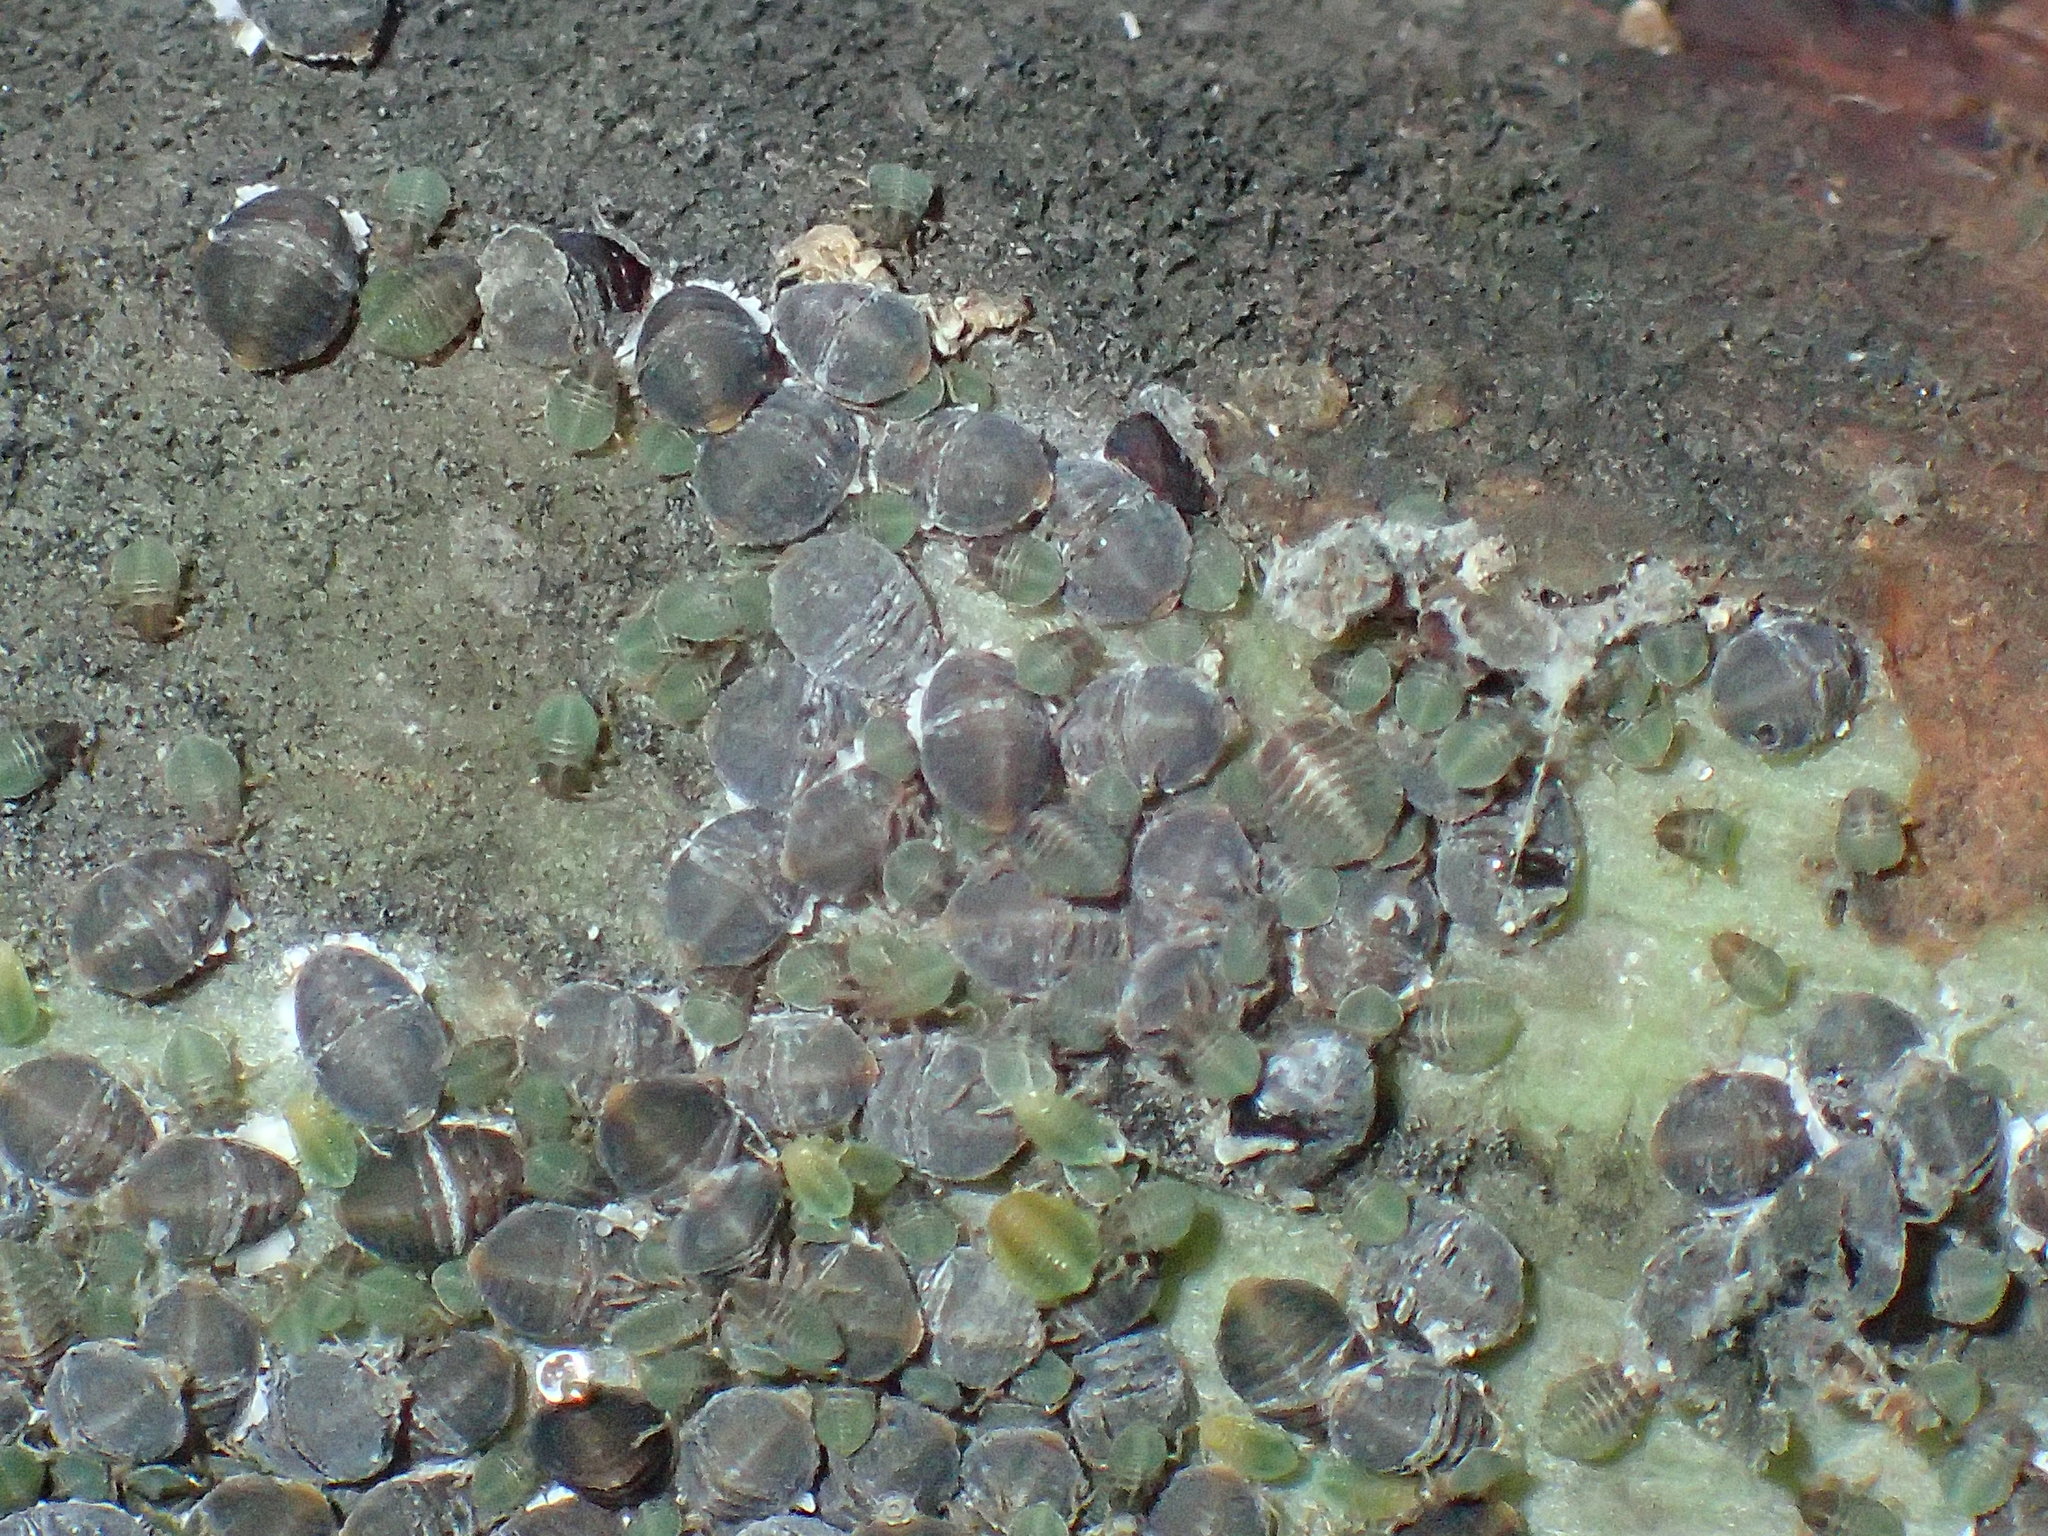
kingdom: Animalia
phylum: Arthropoda
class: Insecta
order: Hemiptera
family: Aphididae
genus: Cerataphis
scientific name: Cerataphis brasiliensis
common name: Palm aphid
